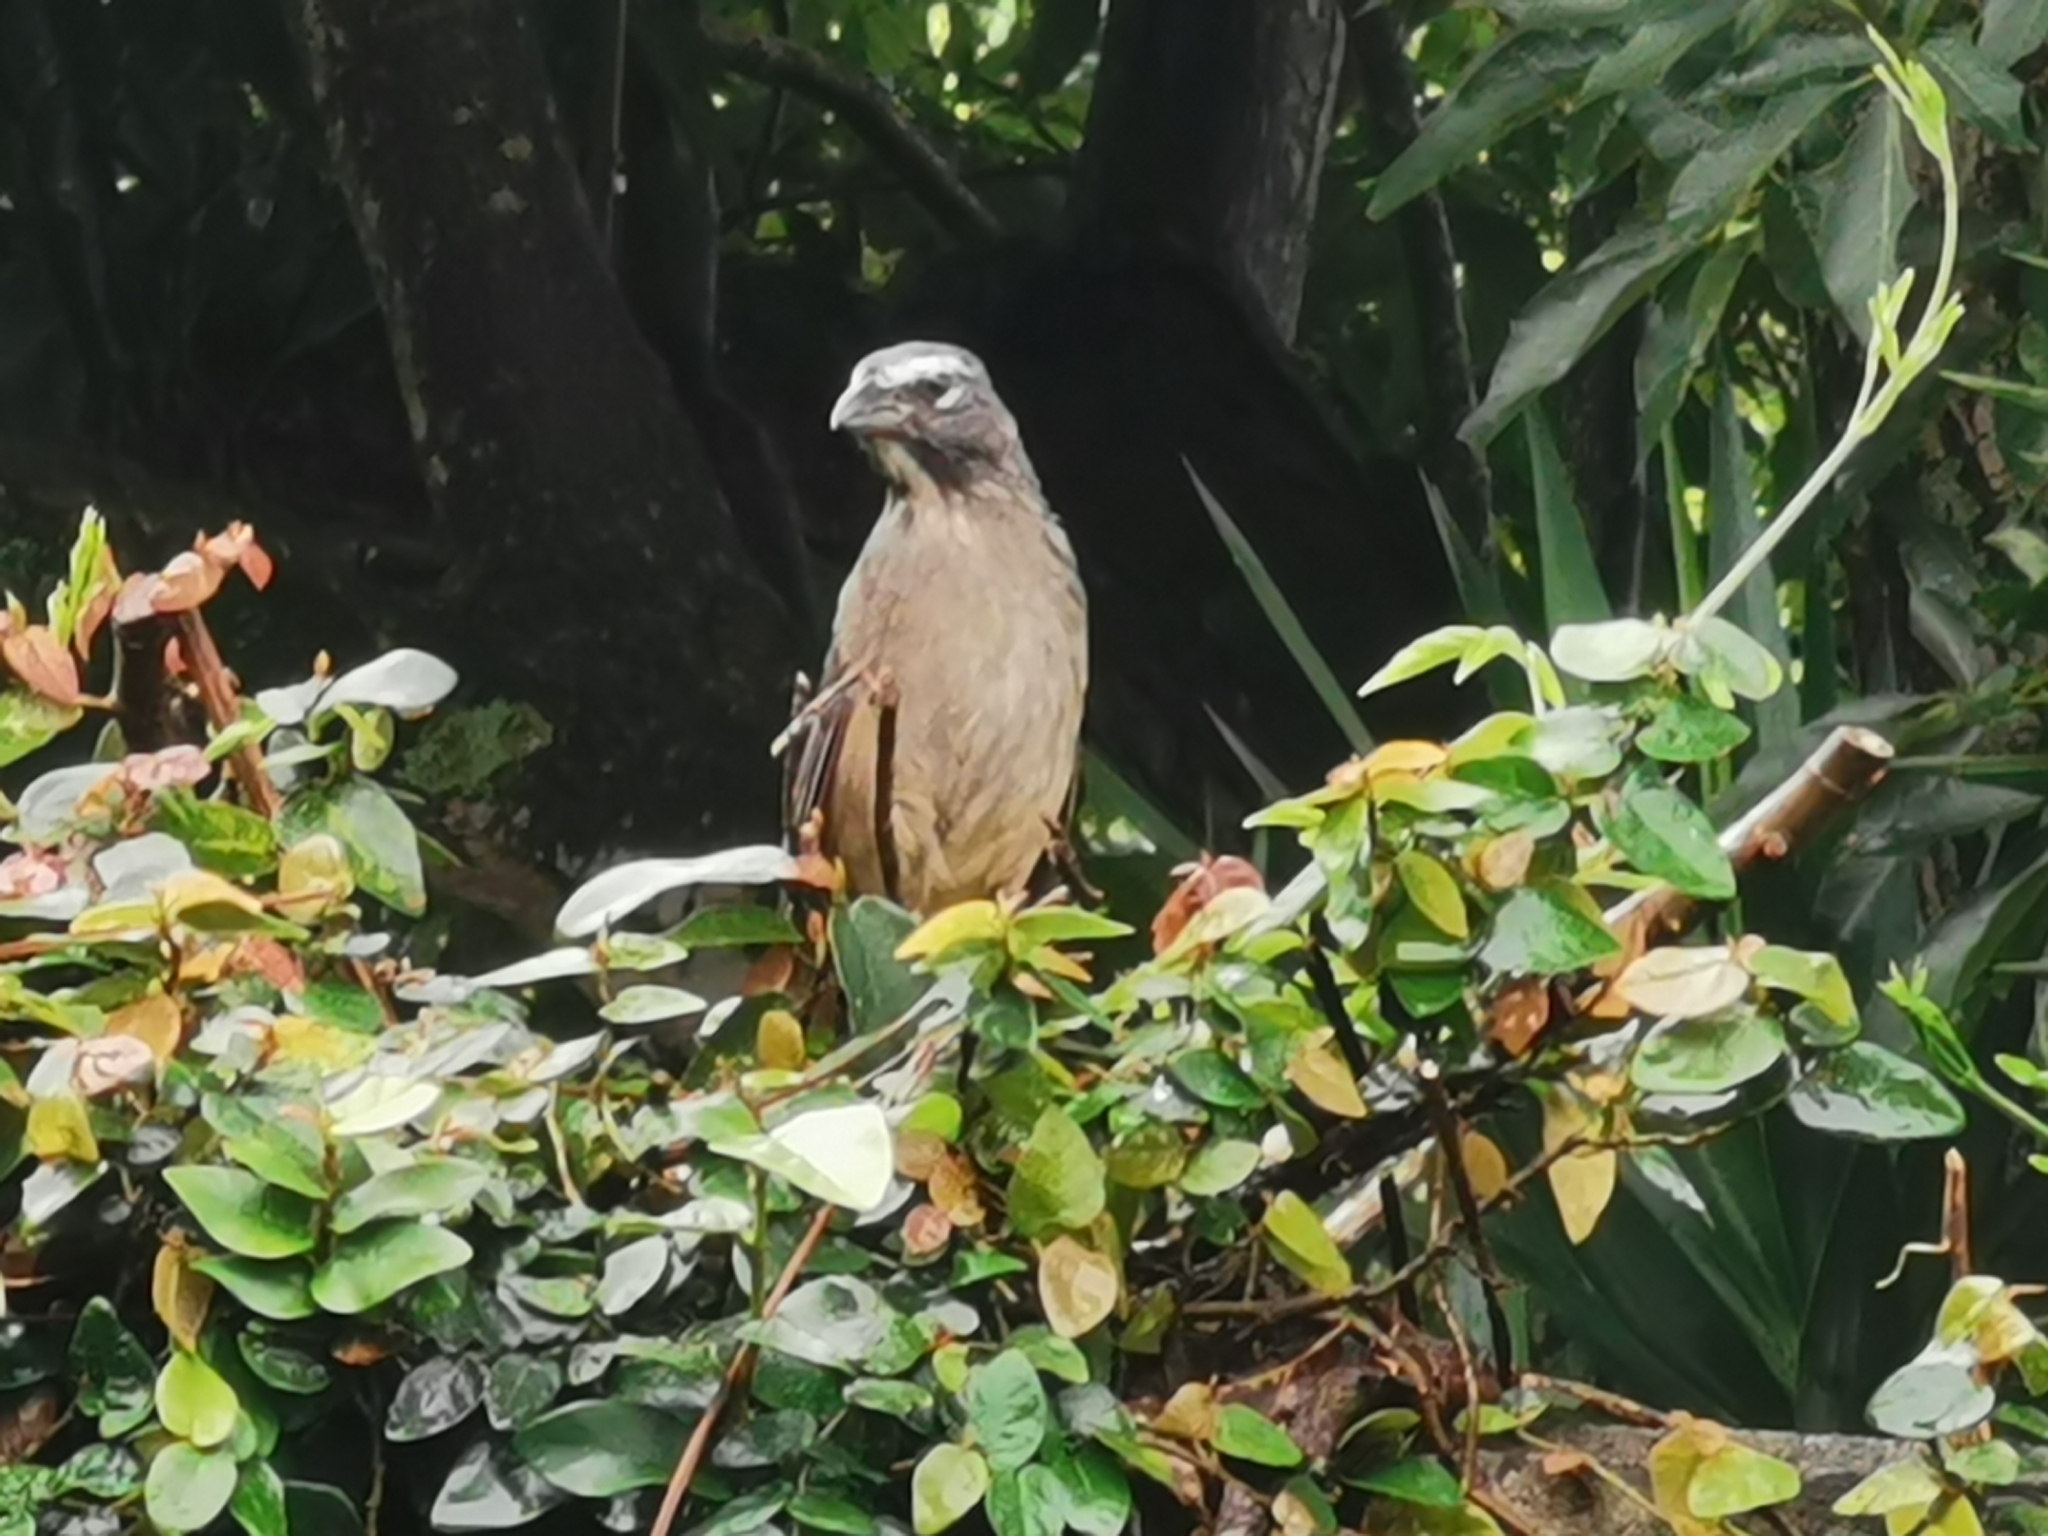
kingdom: Animalia
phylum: Chordata
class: Aves
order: Passeriformes
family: Thraupidae
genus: Saltator
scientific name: Saltator grandis
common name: Cinnamon-bellied saltator
